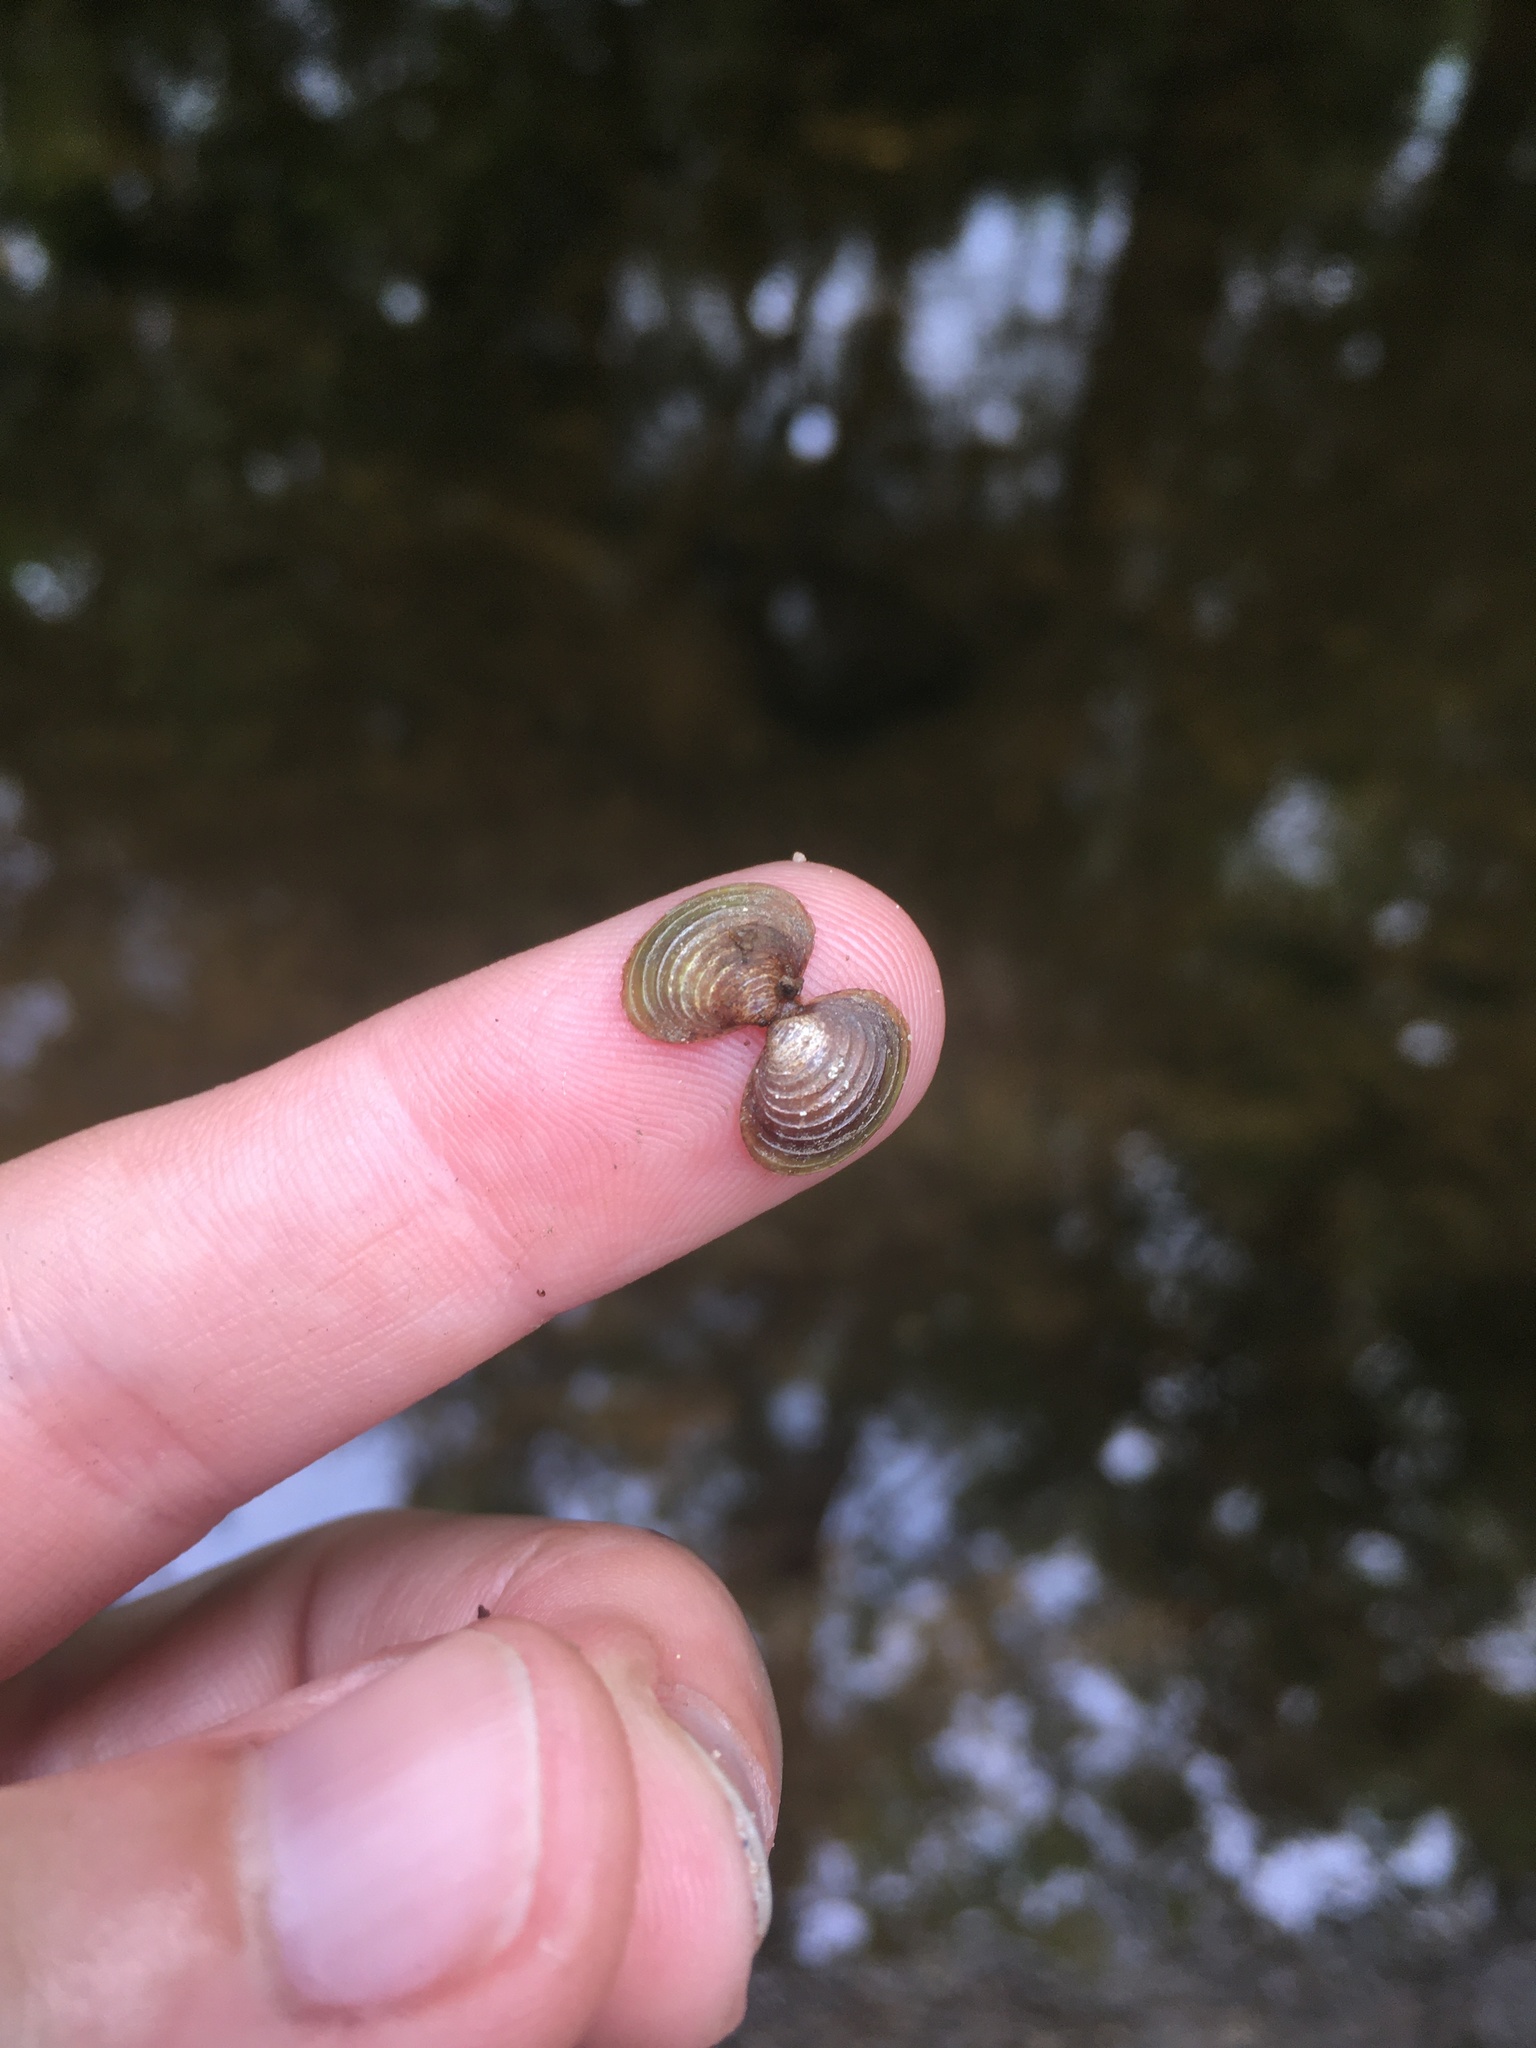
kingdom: Animalia
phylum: Mollusca
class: Bivalvia
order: Venerida
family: Cyrenidae
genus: Corbicula
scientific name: Corbicula fluminea
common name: Asian clam
